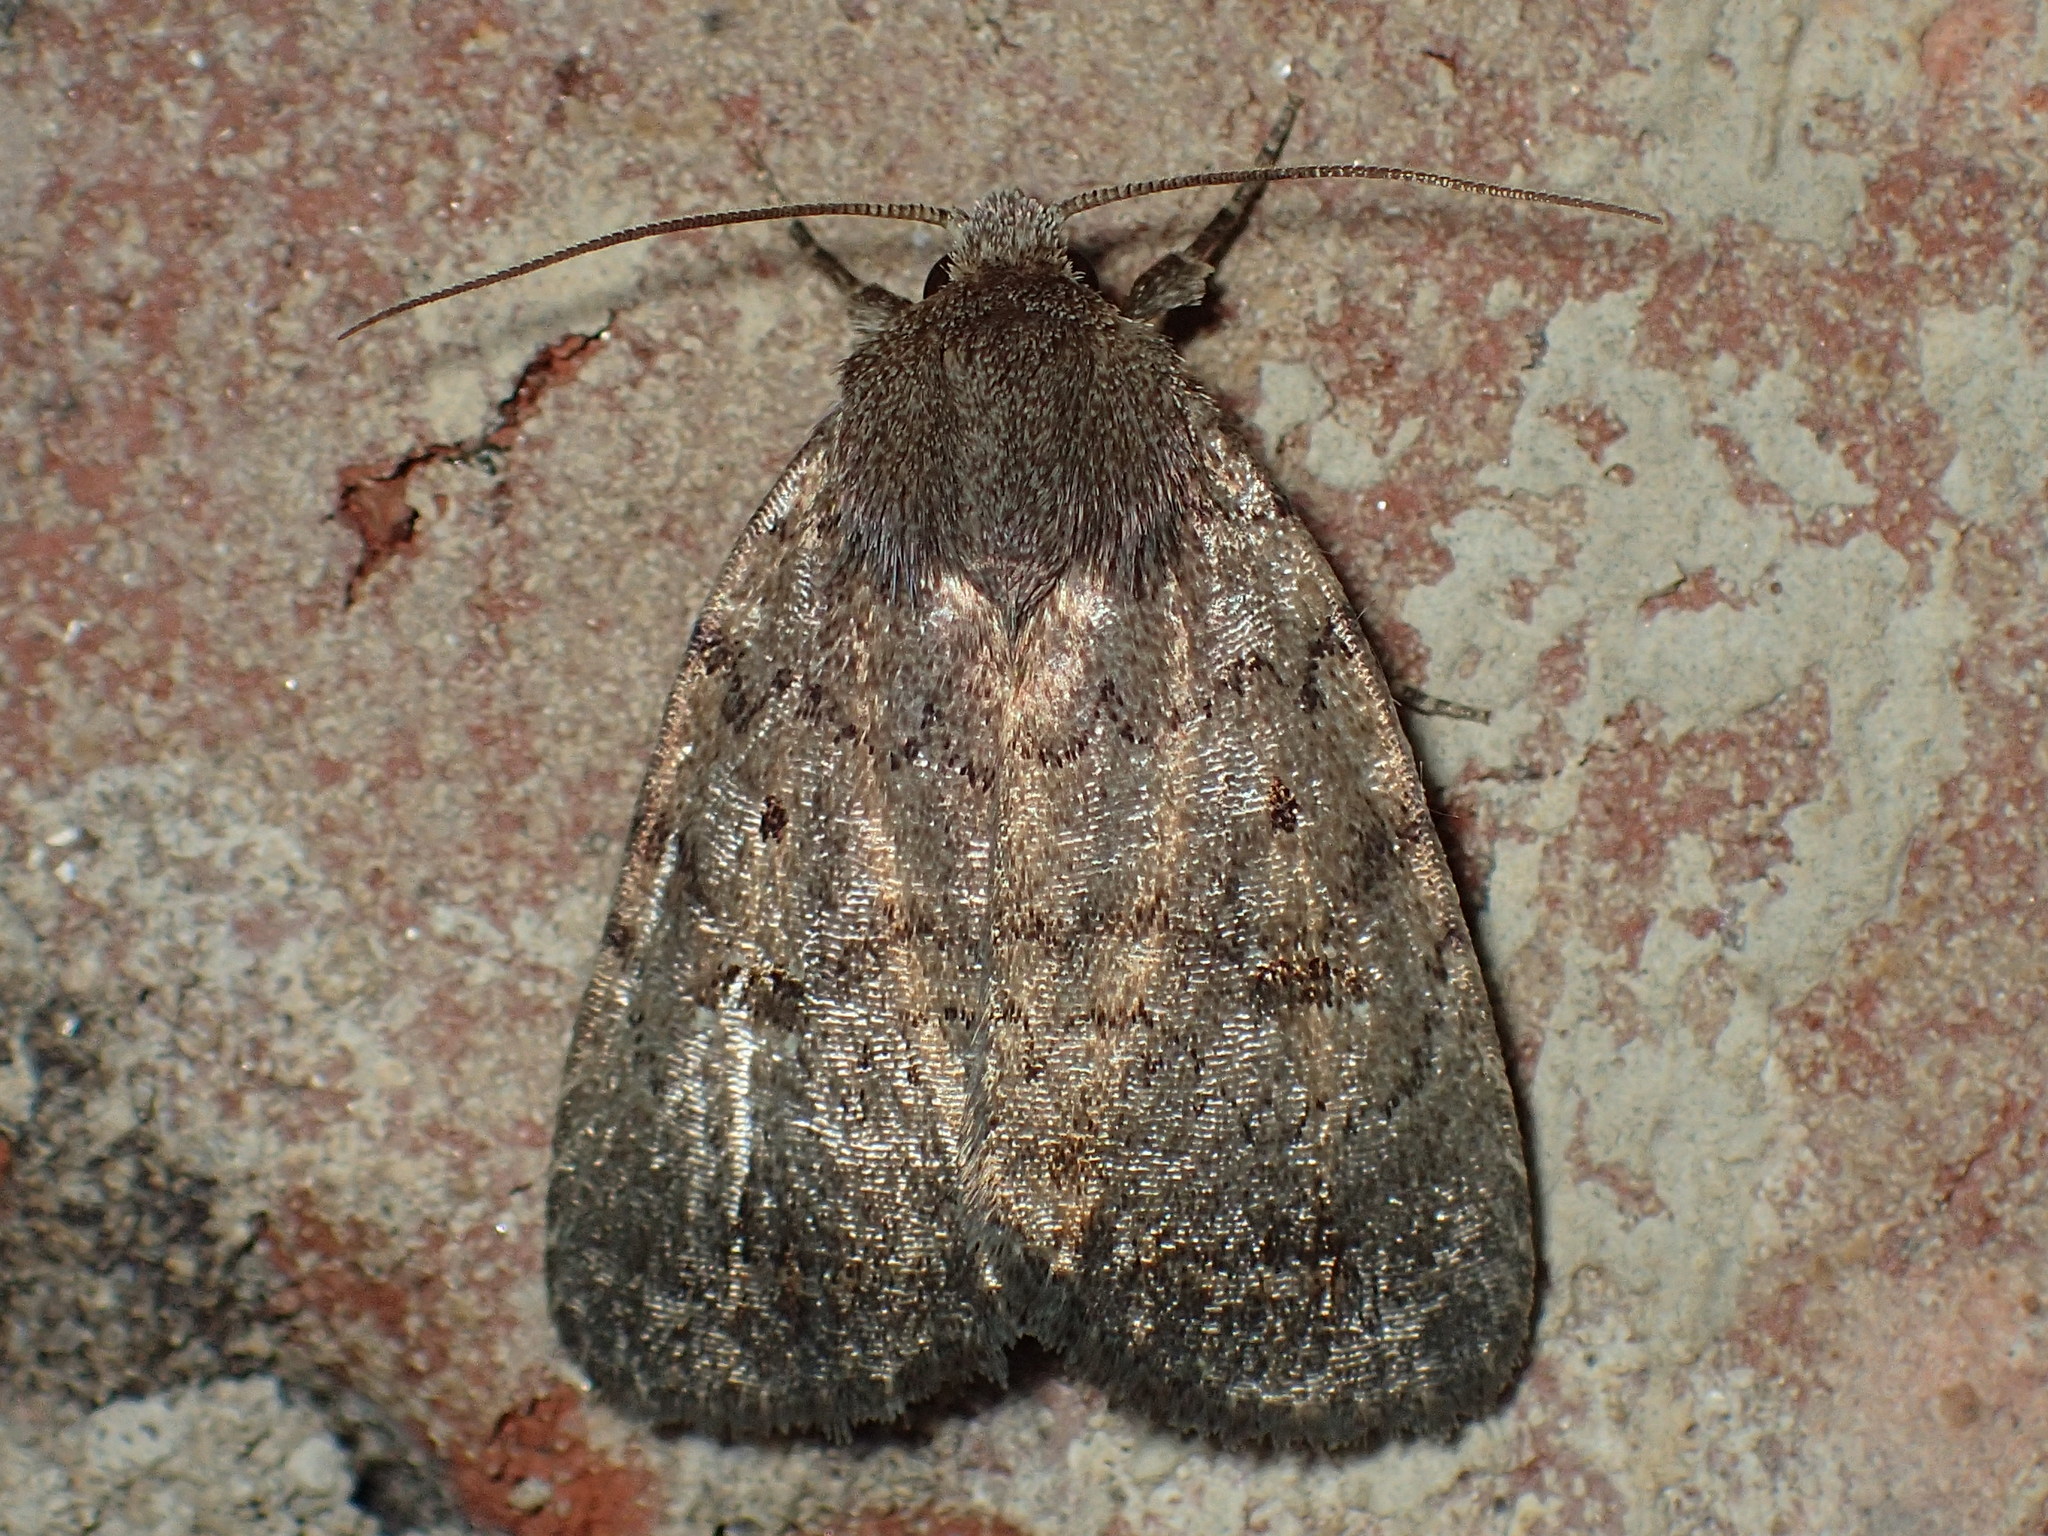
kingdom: Animalia
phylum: Arthropoda
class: Insecta
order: Lepidoptera
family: Noctuidae
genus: Athetis
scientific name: Athetis tarda
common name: Slowpoke moth
